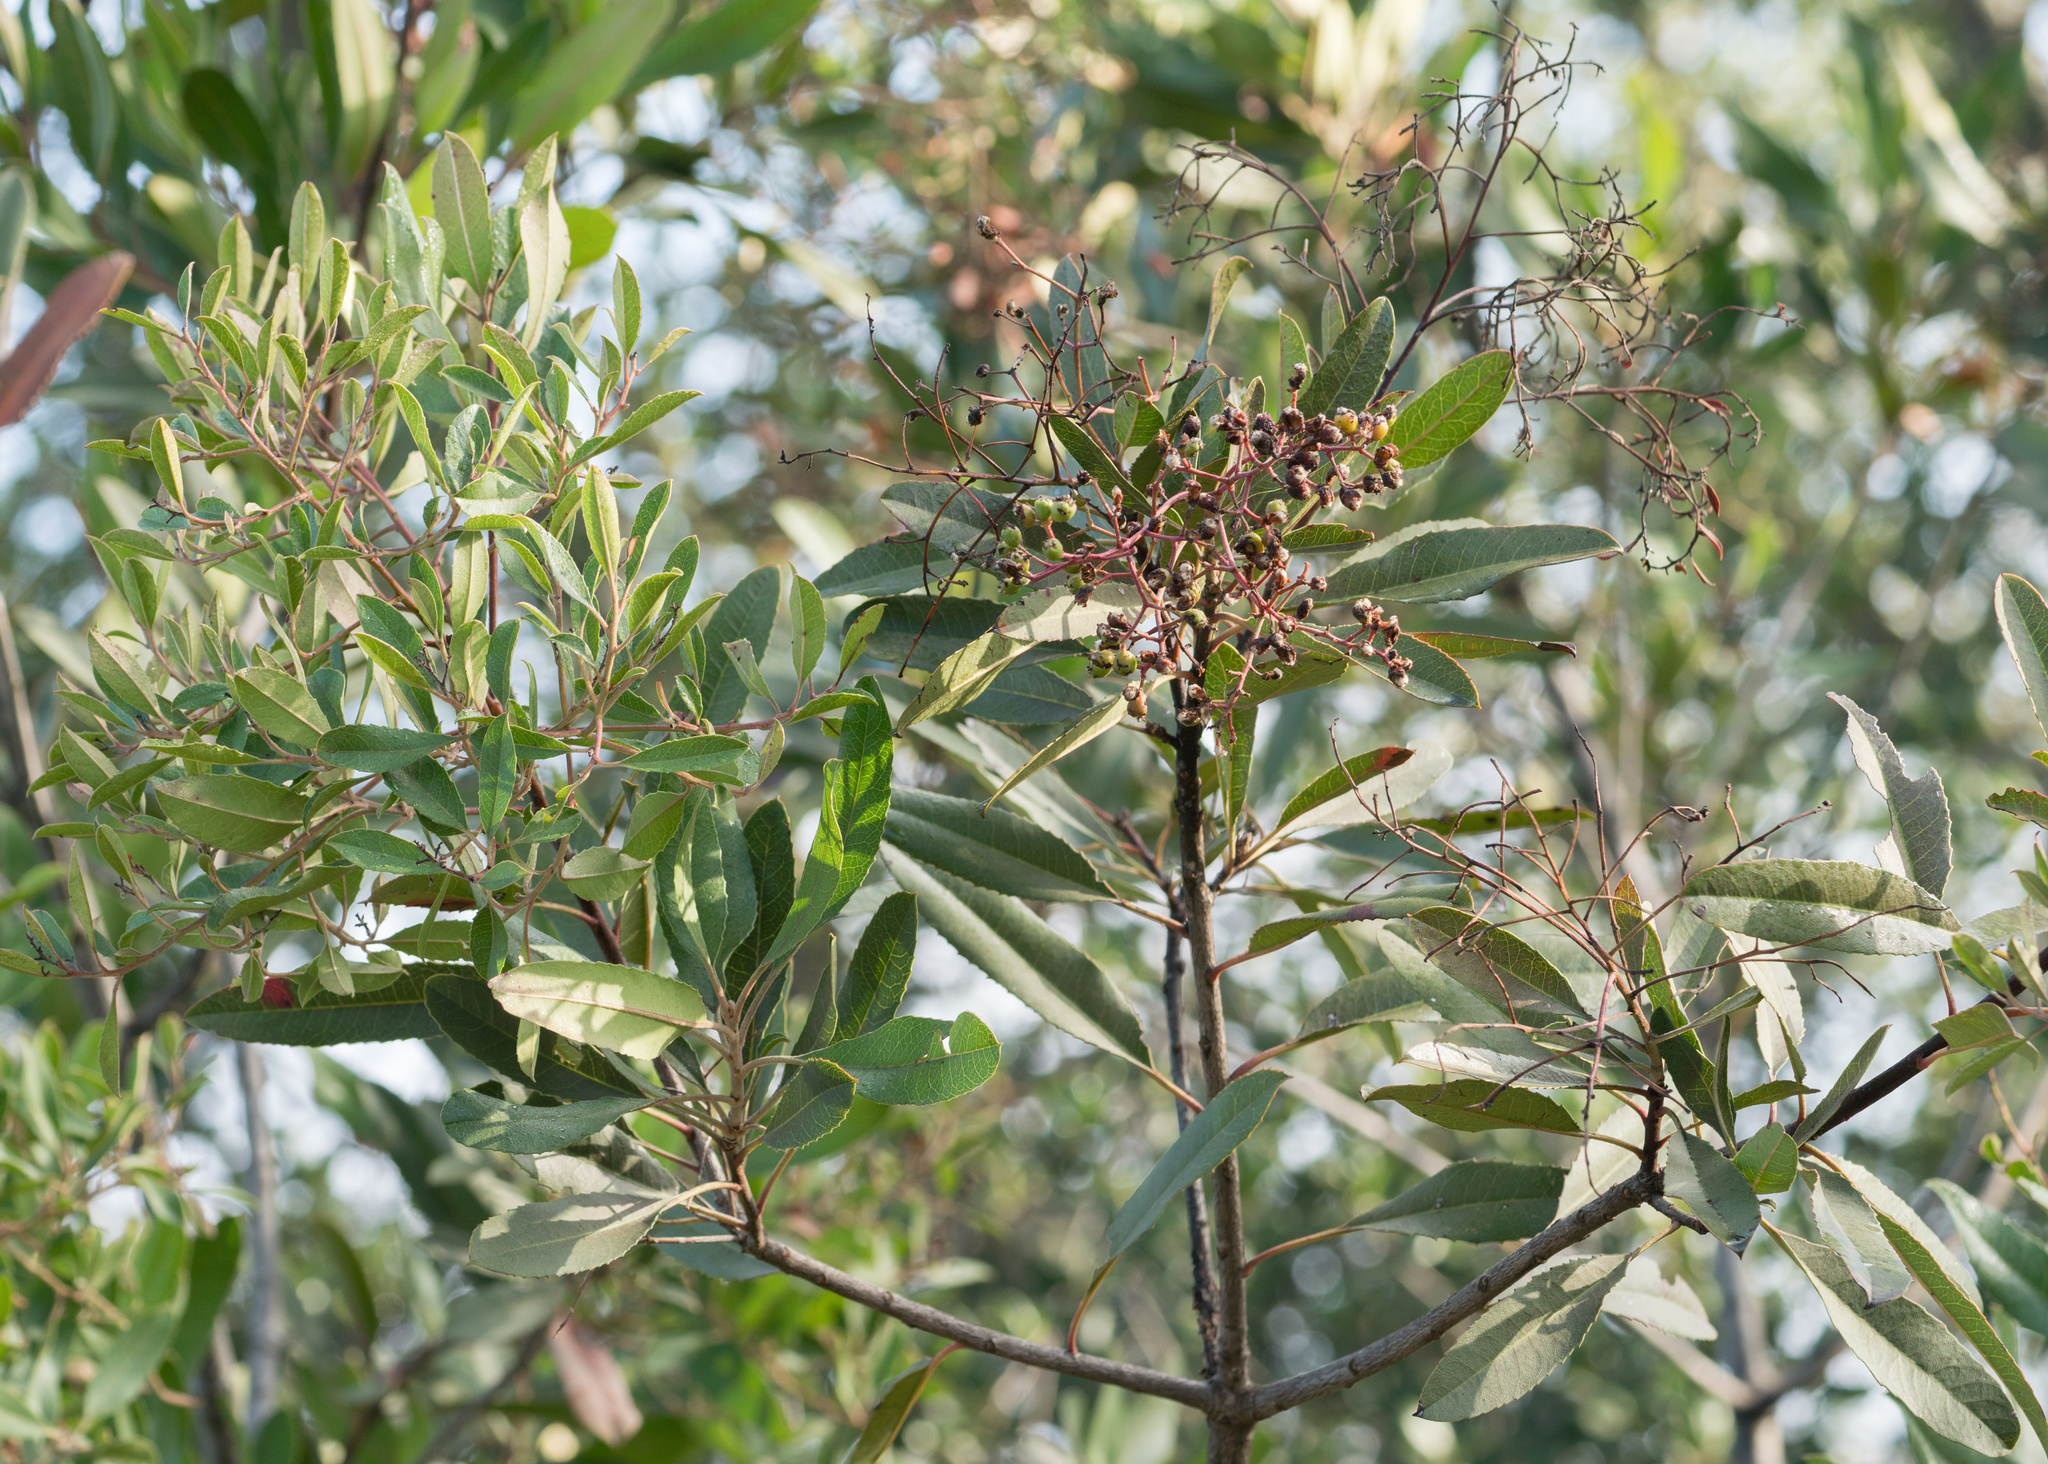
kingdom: Plantae
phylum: Tracheophyta
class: Magnoliopsida
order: Rosales
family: Rosaceae
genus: Heteromeles
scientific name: Heteromeles arbutifolia
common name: California-holly
